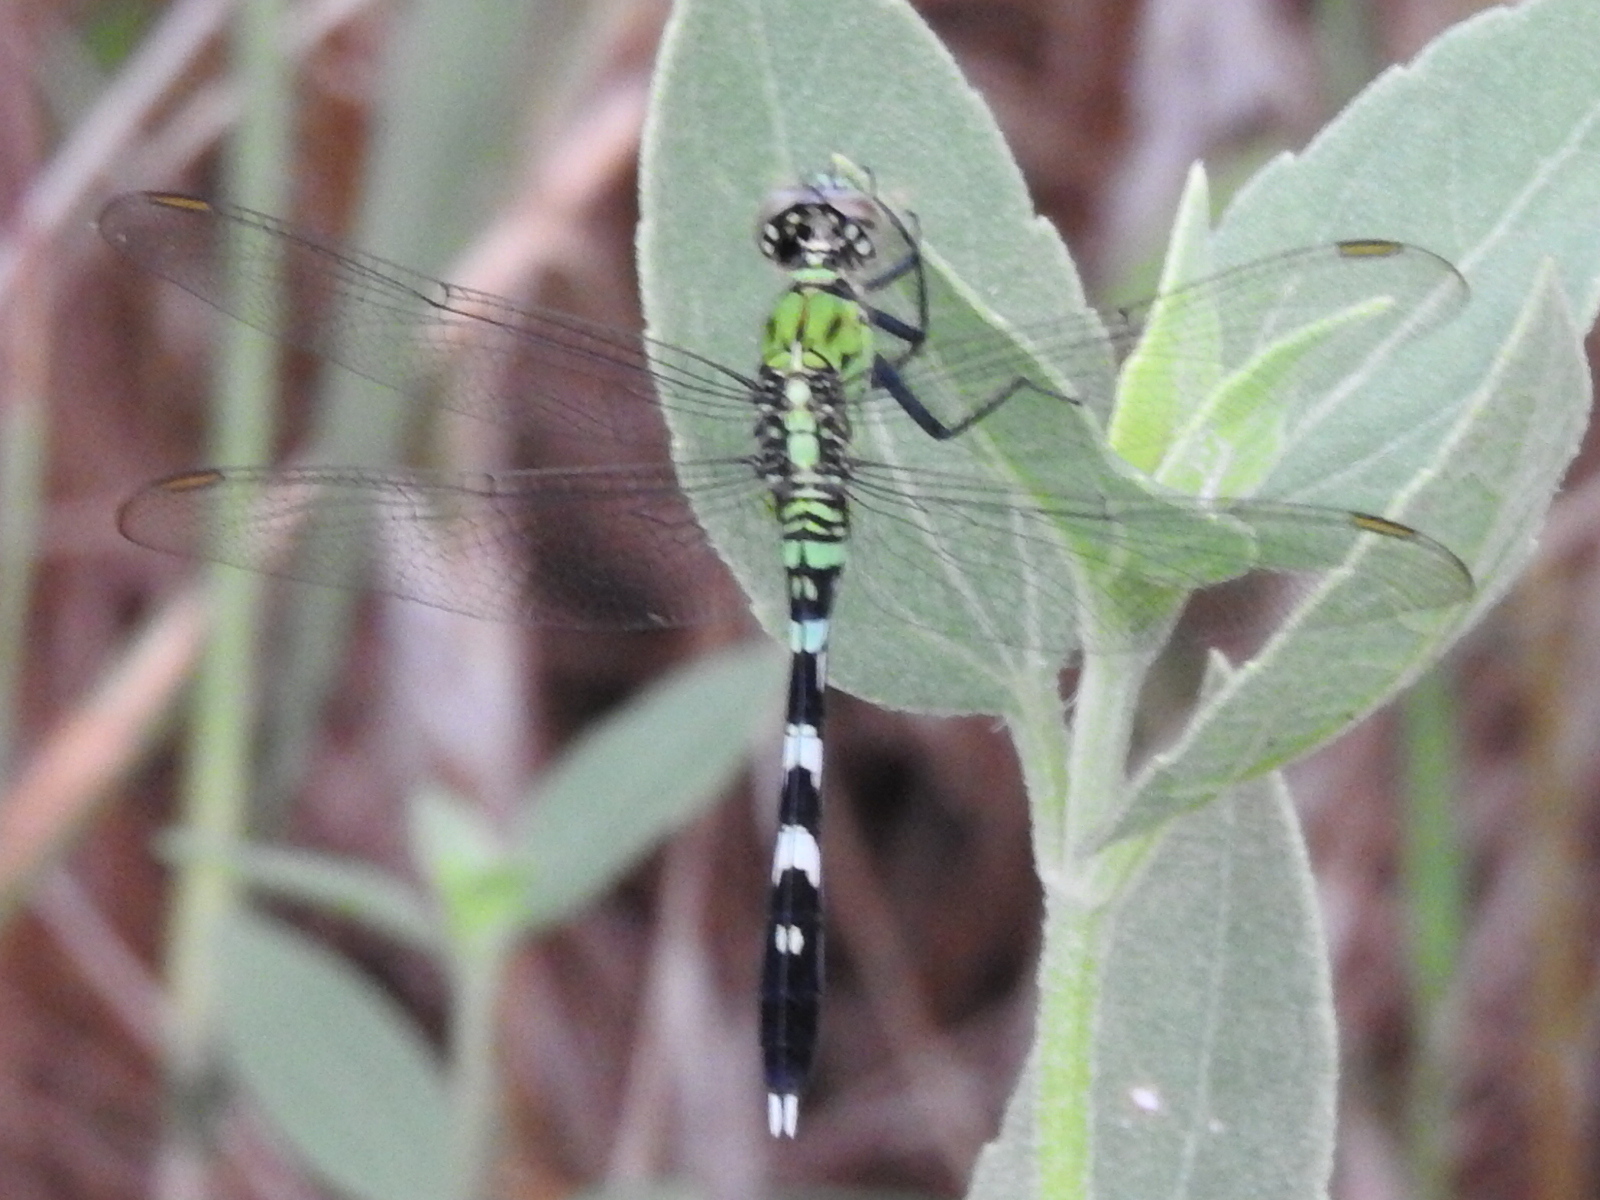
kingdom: Animalia
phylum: Arthropoda
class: Insecta
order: Odonata
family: Libellulidae
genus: Erythemis
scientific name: Erythemis simplicicollis
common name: Eastern pondhawk
